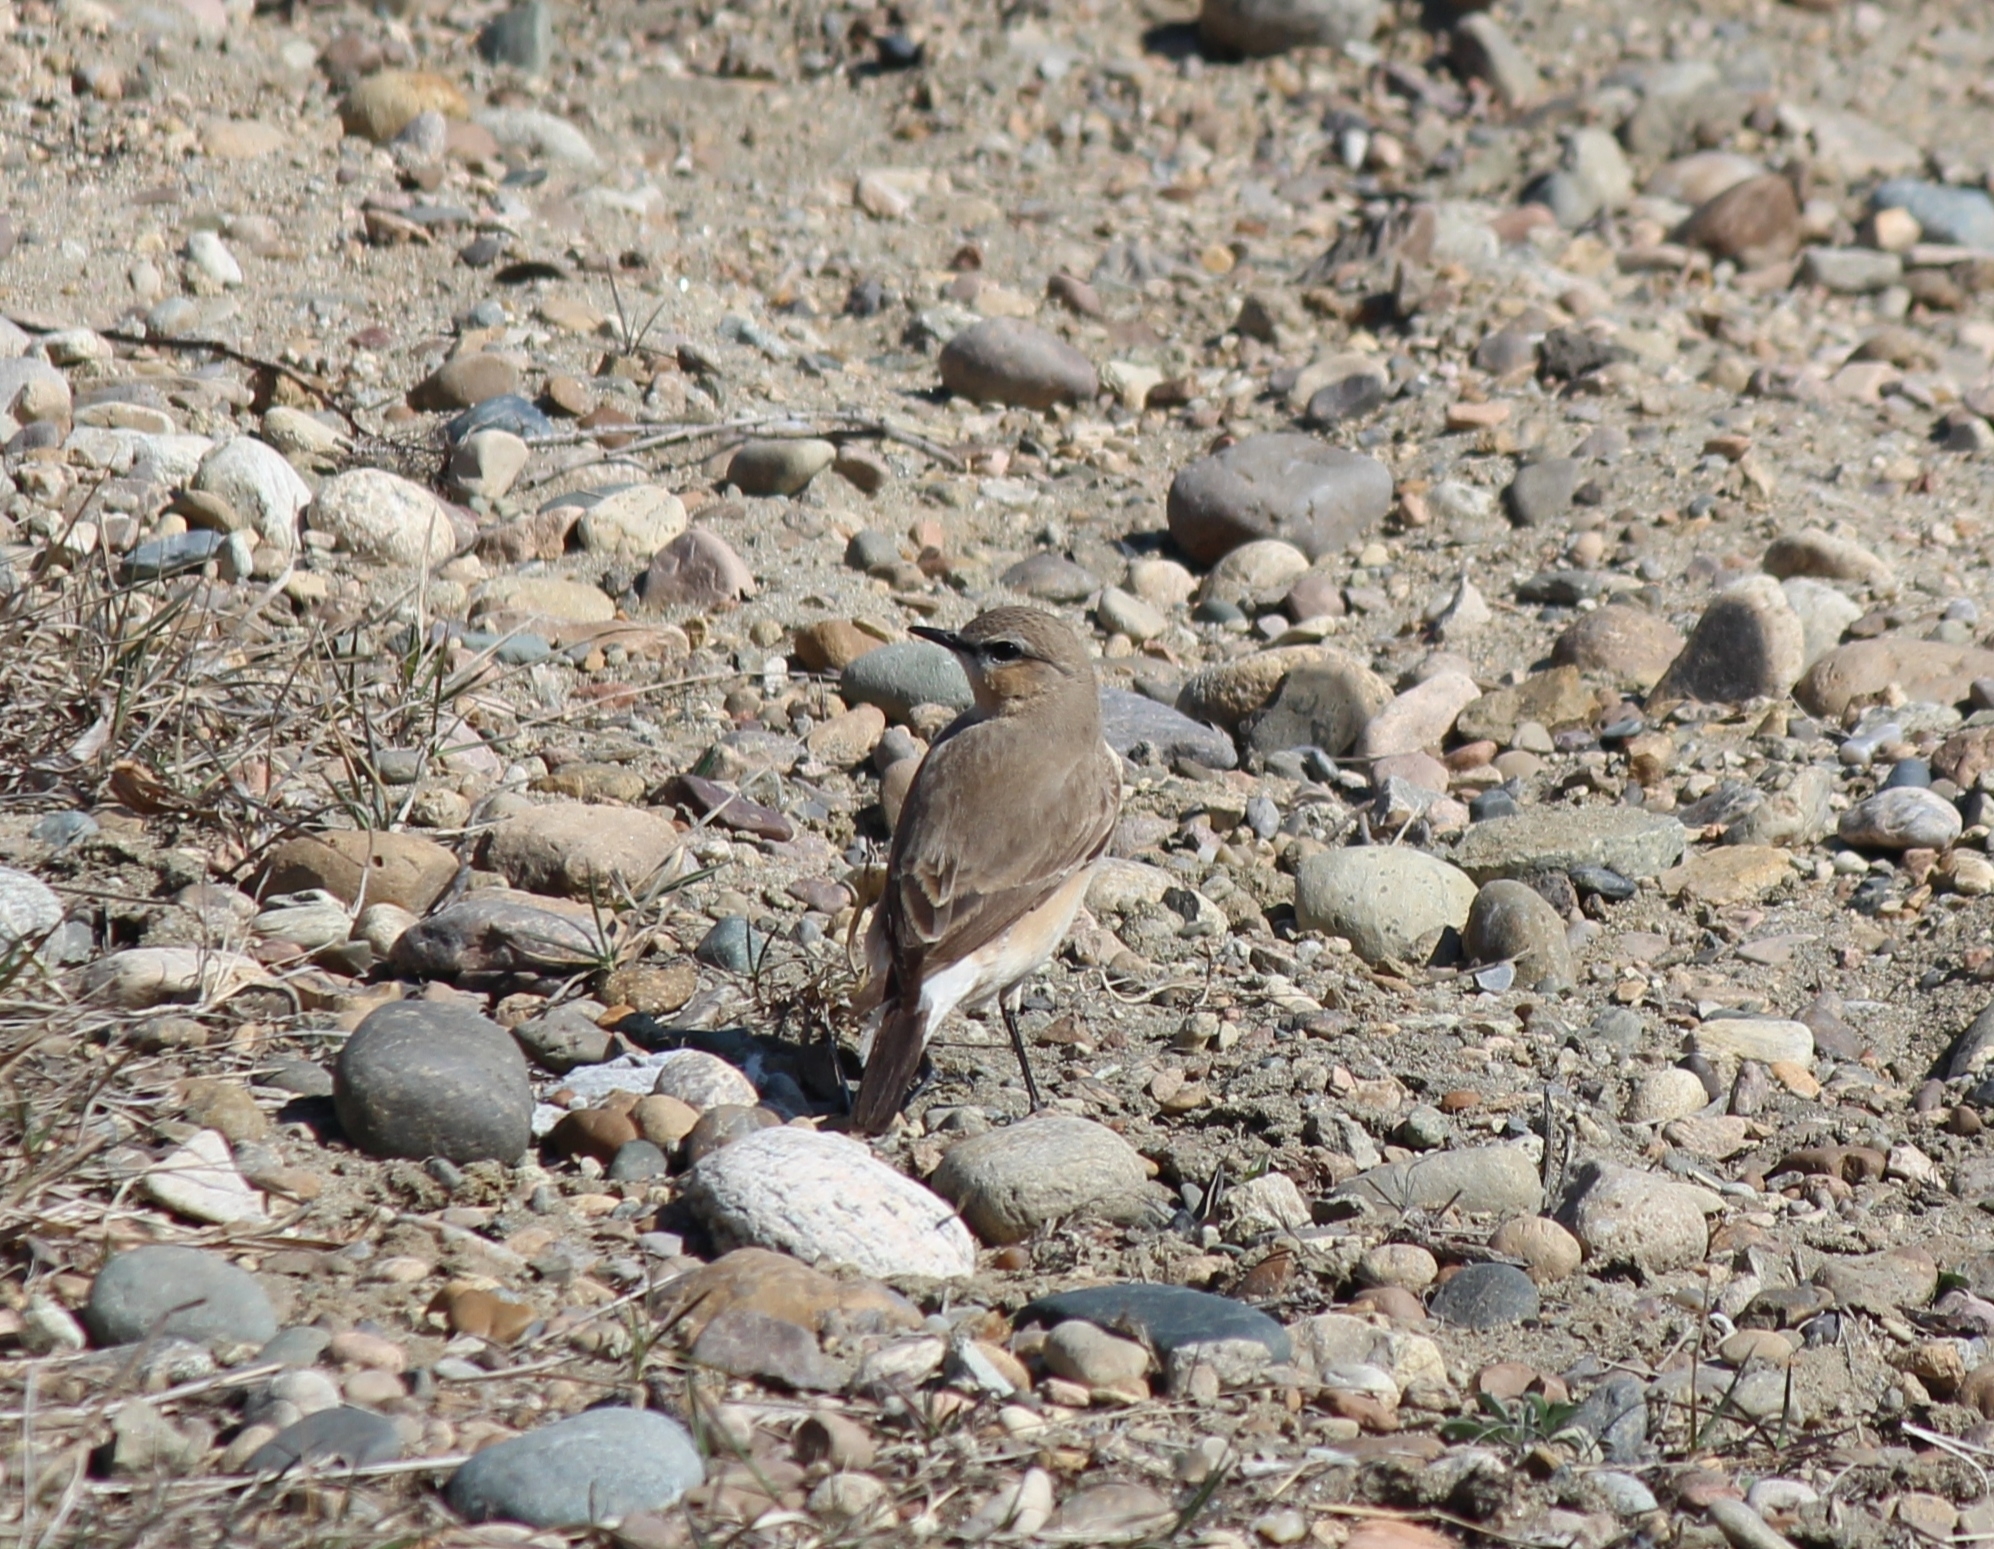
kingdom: Animalia
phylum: Chordata
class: Aves
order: Passeriformes
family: Muscicapidae
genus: Oenanthe
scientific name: Oenanthe oenanthe
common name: Northern wheatear
